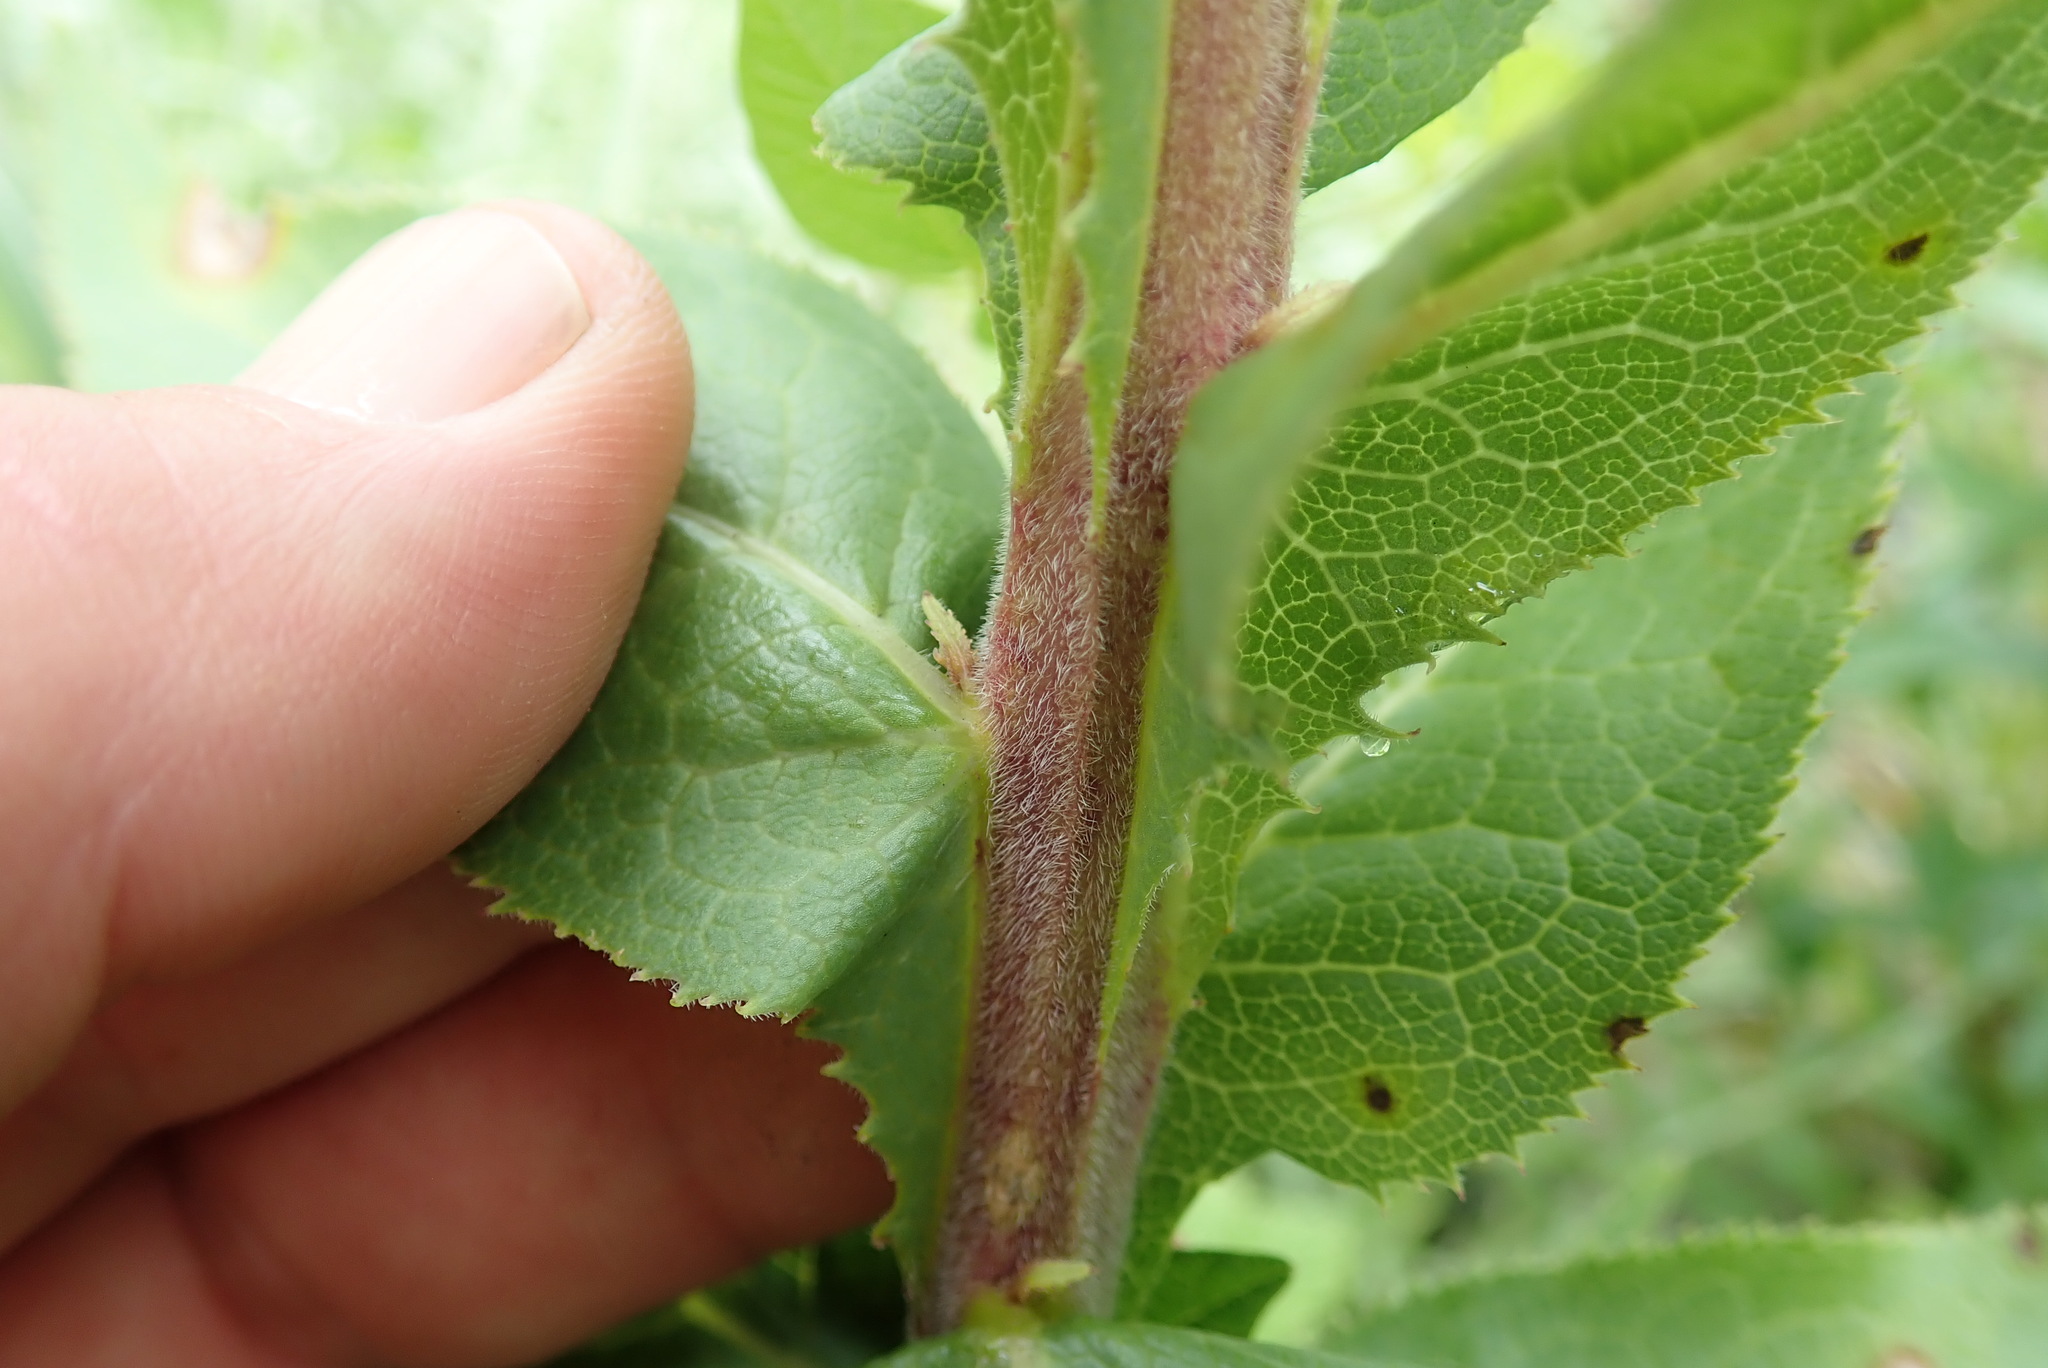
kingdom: Plantae
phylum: Tracheophyta
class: Magnoliopsida
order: Asterales
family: Campanulaceae
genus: Cyphia
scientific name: Cyphia elata
